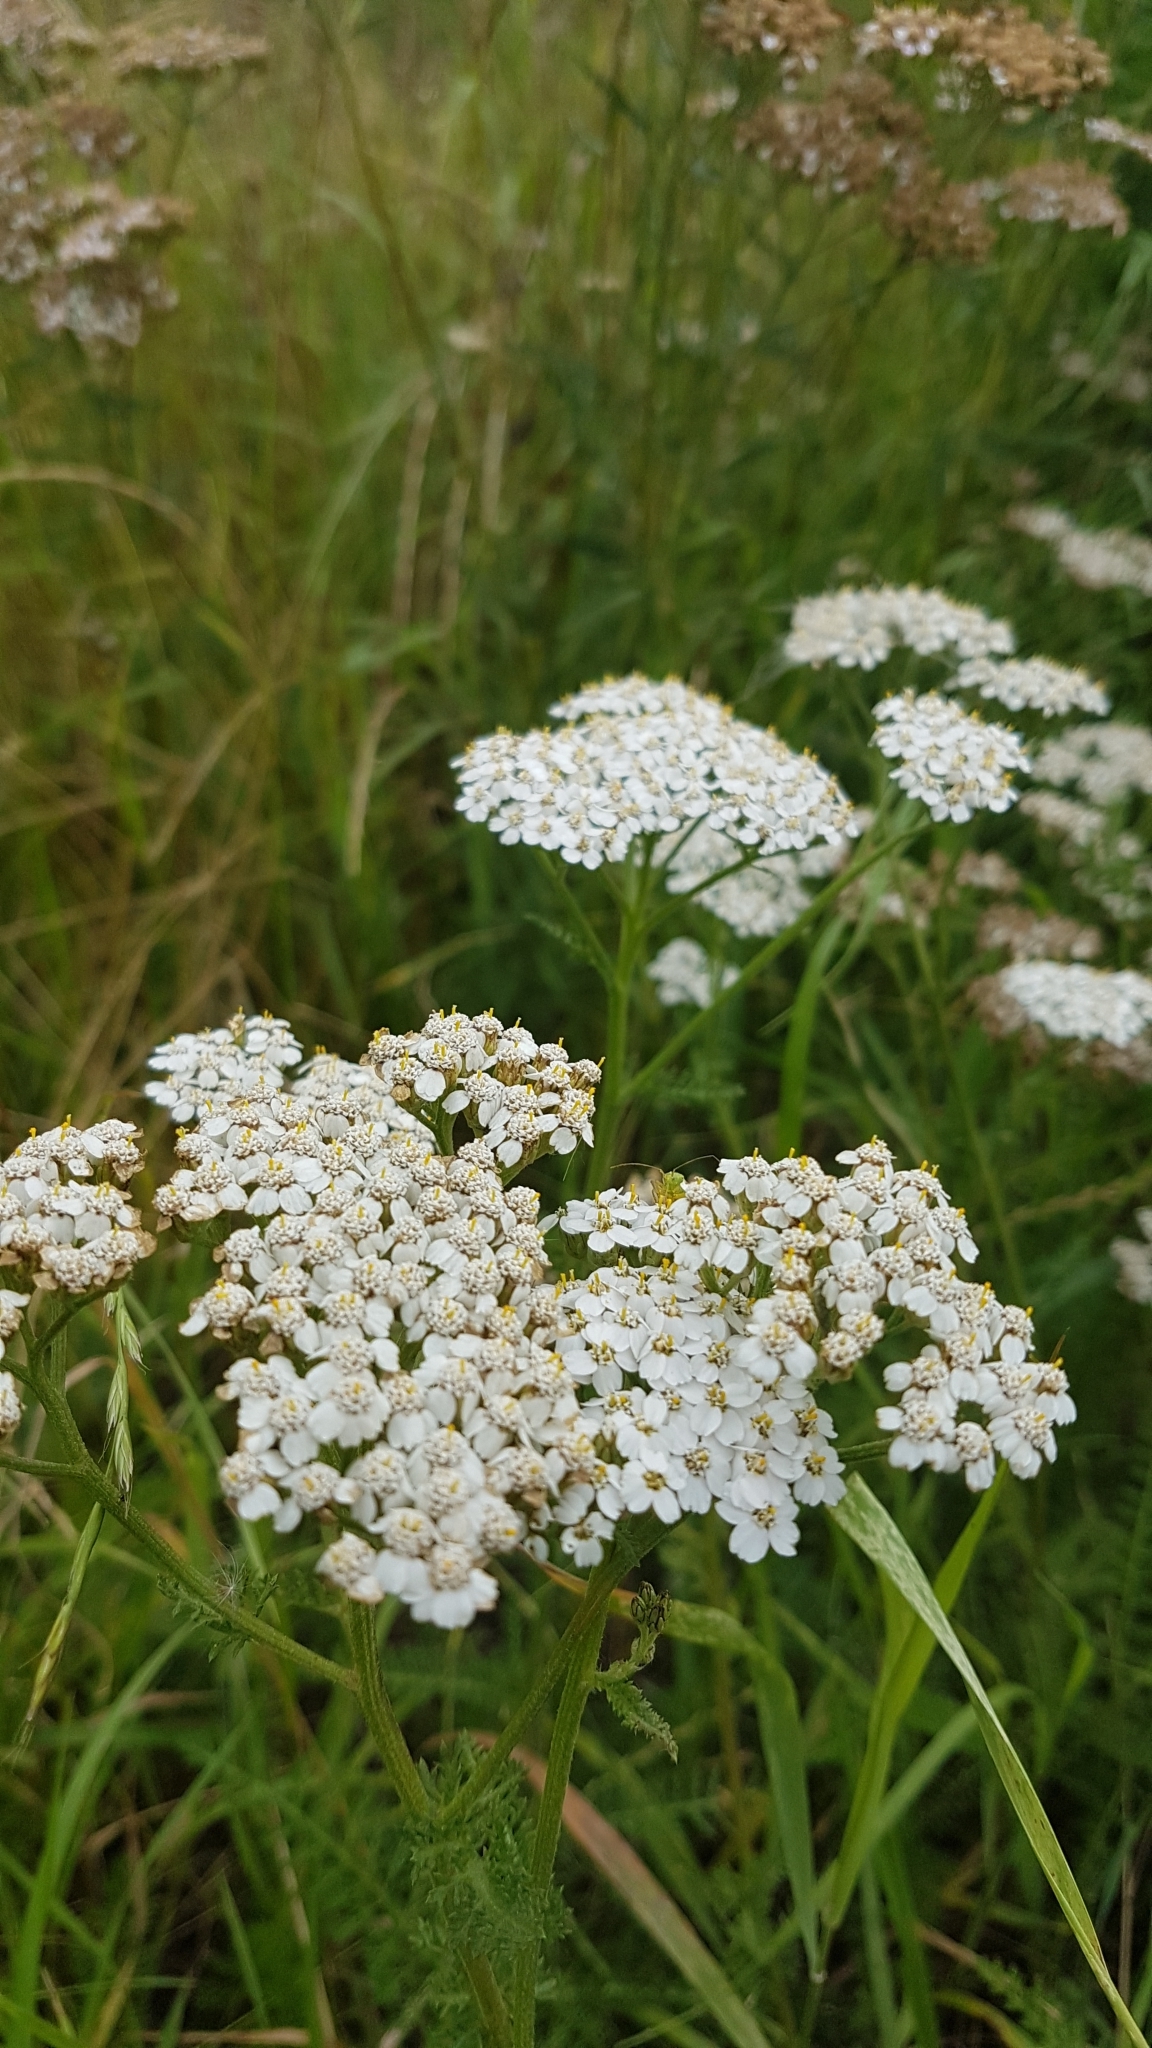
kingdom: Plantae
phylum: Tracheophyta
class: Magnoliopsida
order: Asterales
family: Asteraceae
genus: Achillea
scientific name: Achillea millefolium
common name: Yarrow
